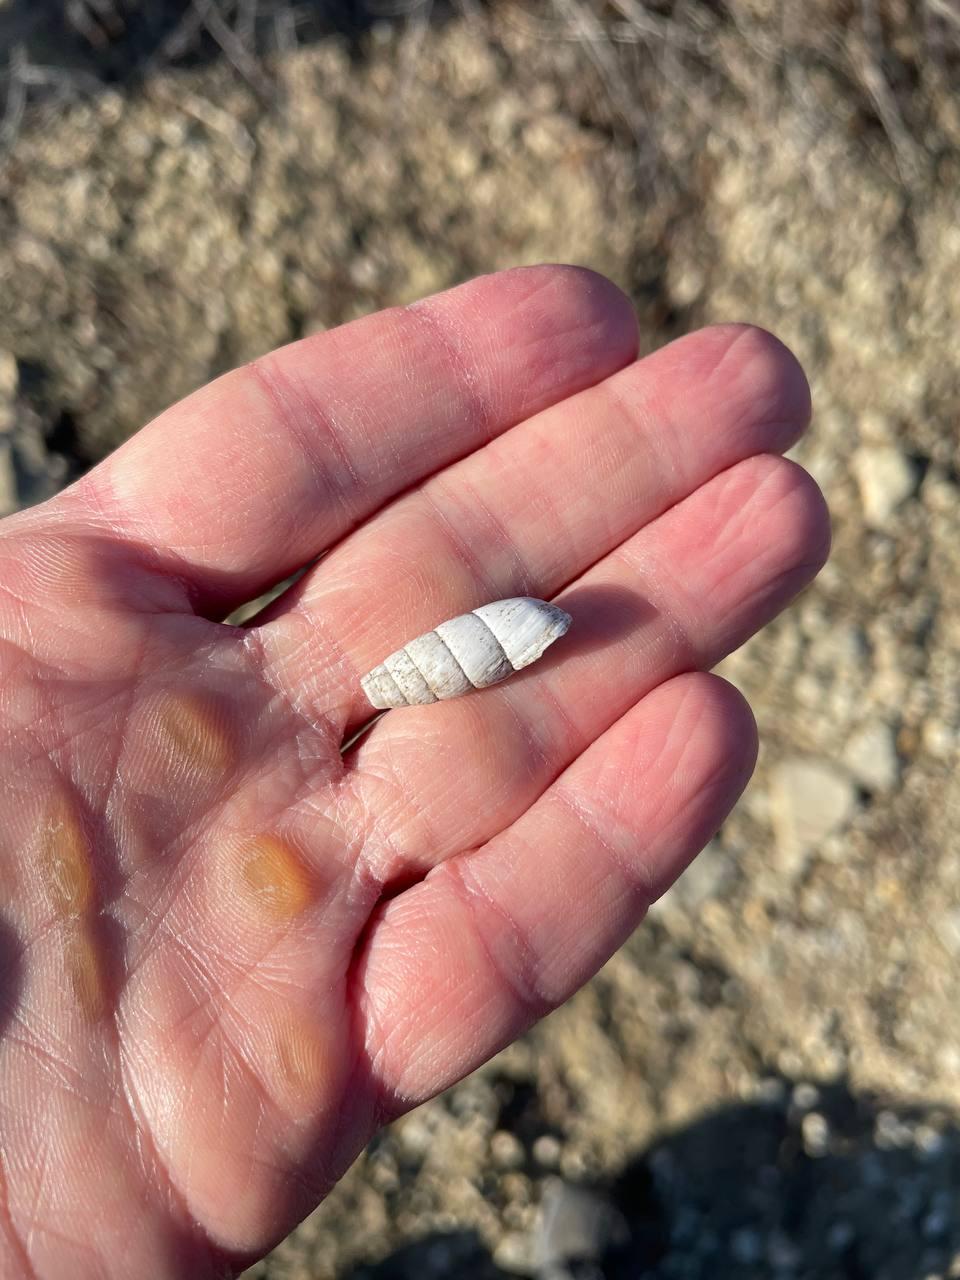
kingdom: Animalia
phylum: Mollusca
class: Gastropoda
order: Stylommatophora
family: Enidae
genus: Brephulopsis
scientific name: Brephulopsis cylindrica
